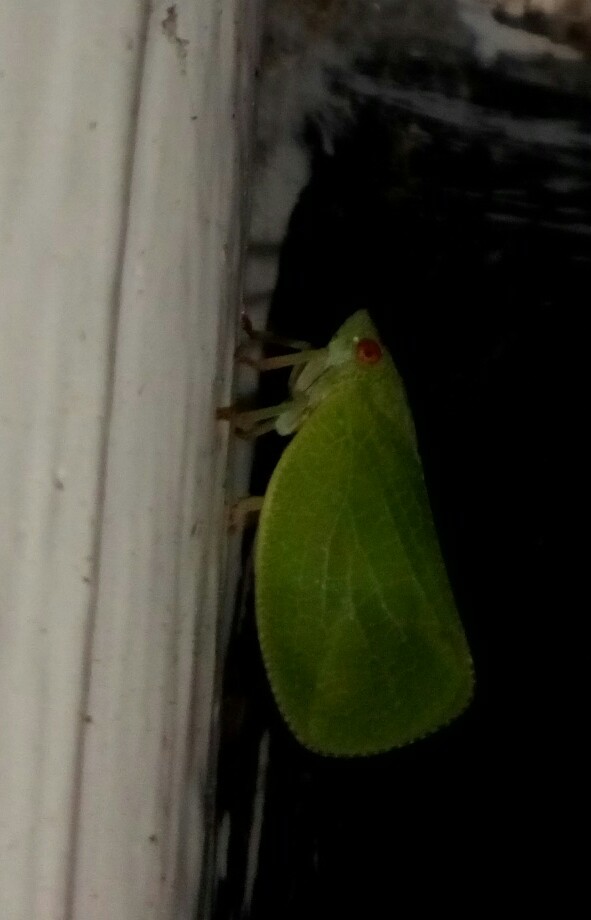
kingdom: Animalia
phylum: Arthropoda
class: Insecta
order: Hemiptera
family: Acanaloniidae
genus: Acanalonia
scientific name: Acanalonia conica
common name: Green cone-headed planthopper
